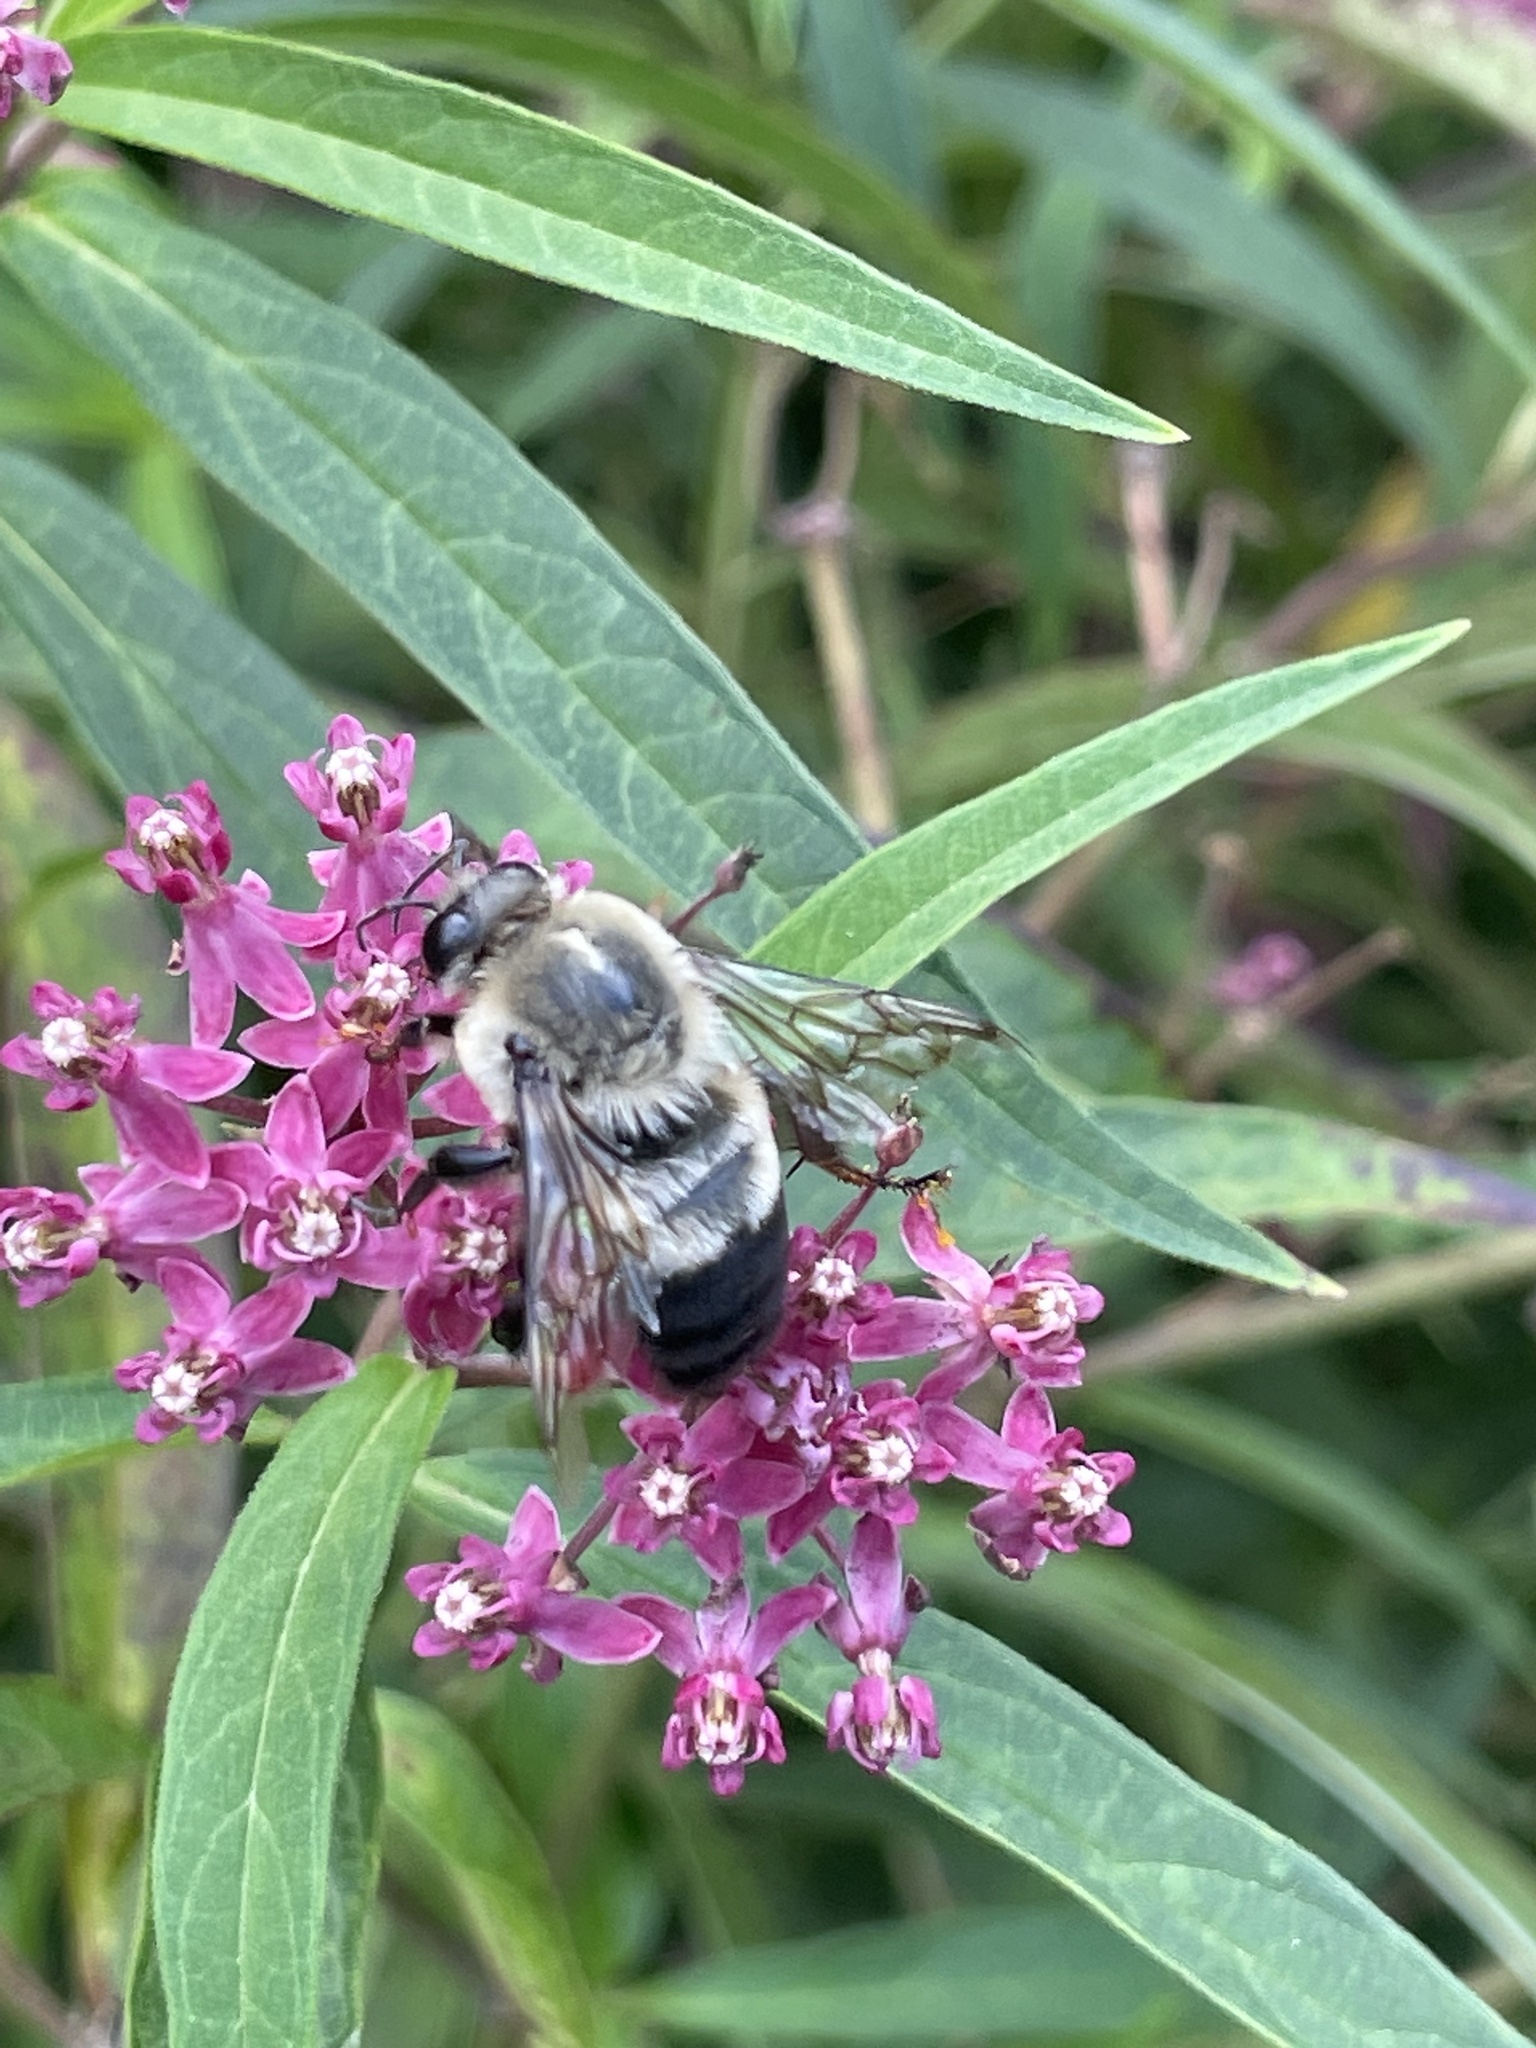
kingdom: Animalia
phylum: Arthropoda
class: Insecta
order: Hymenoptera
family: Apidae
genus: Bombus
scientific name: Bombus griseocollis
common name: Brown-belted bumble bee
